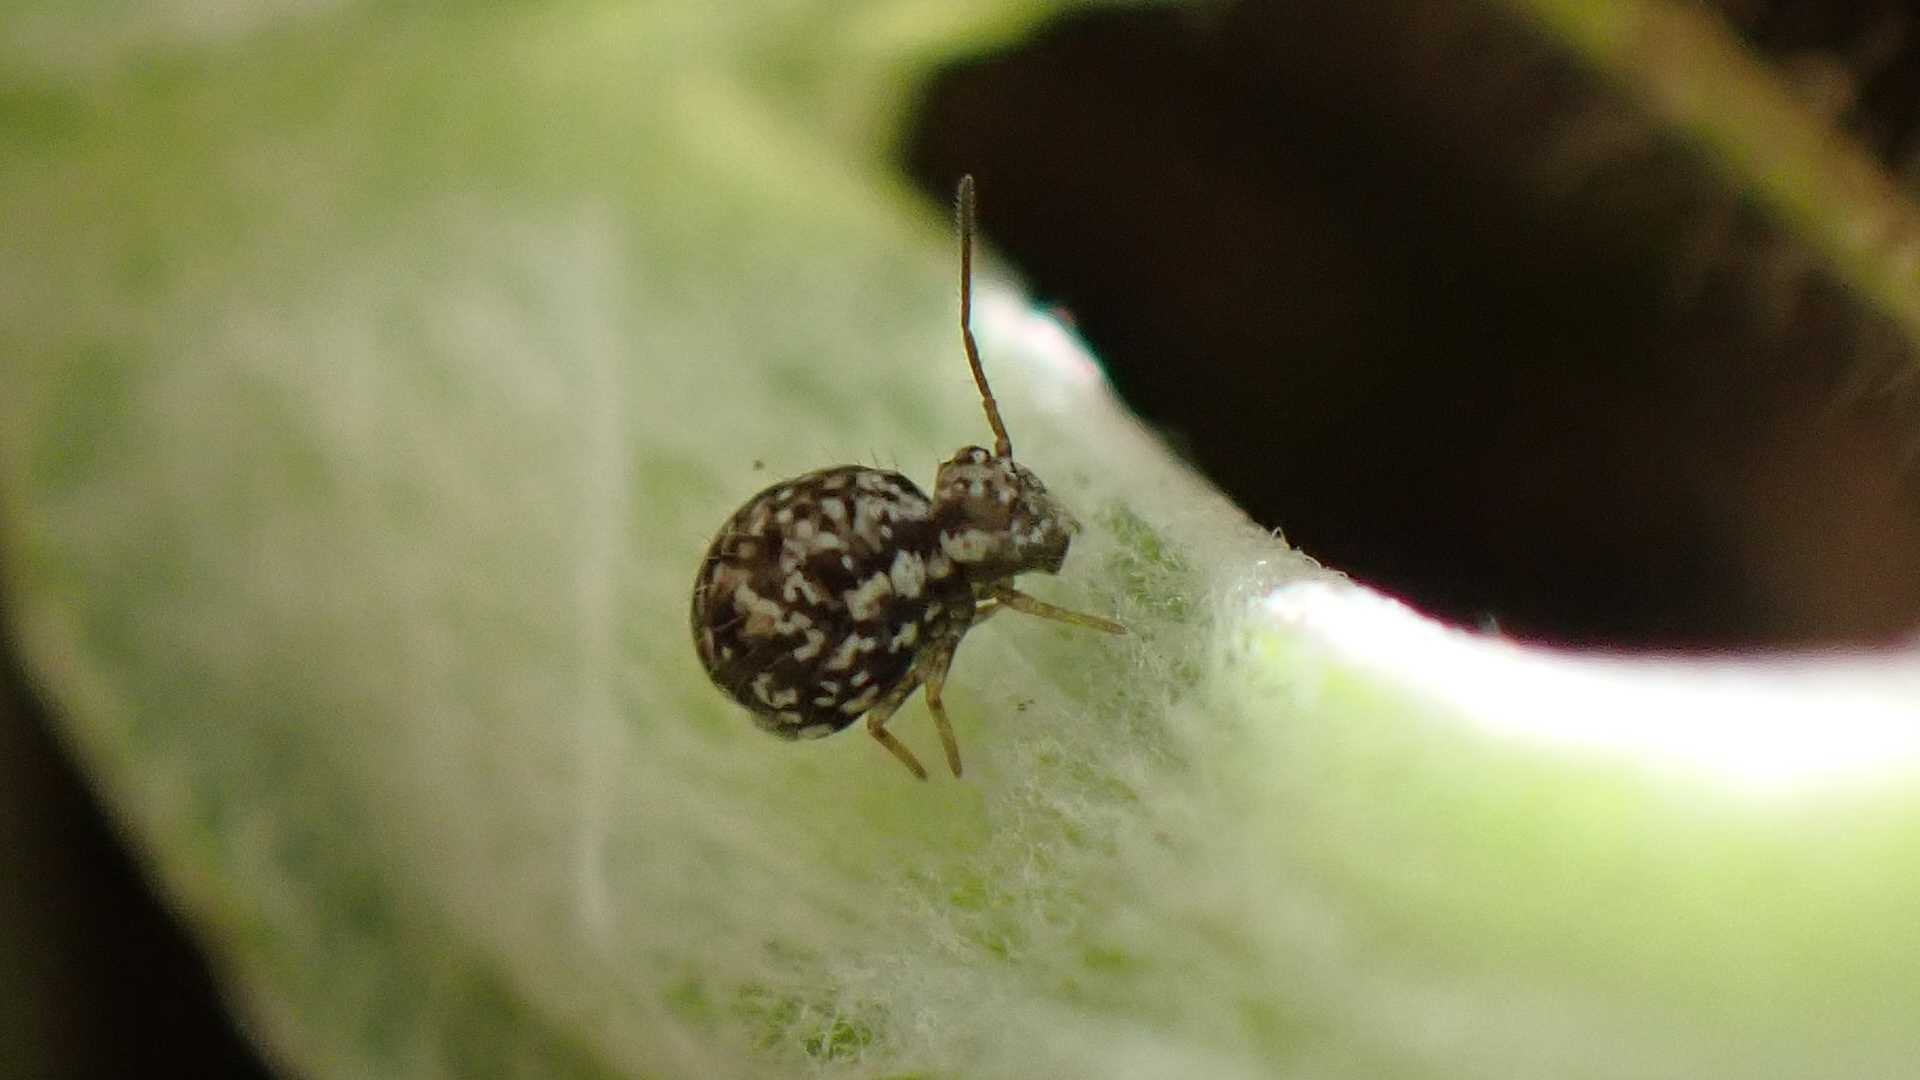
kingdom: Animalia
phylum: Arthropoda
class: Collembola
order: Symphypleona
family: Sminthuridae
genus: Sminthurus
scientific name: Sminthurus leucomelanus
